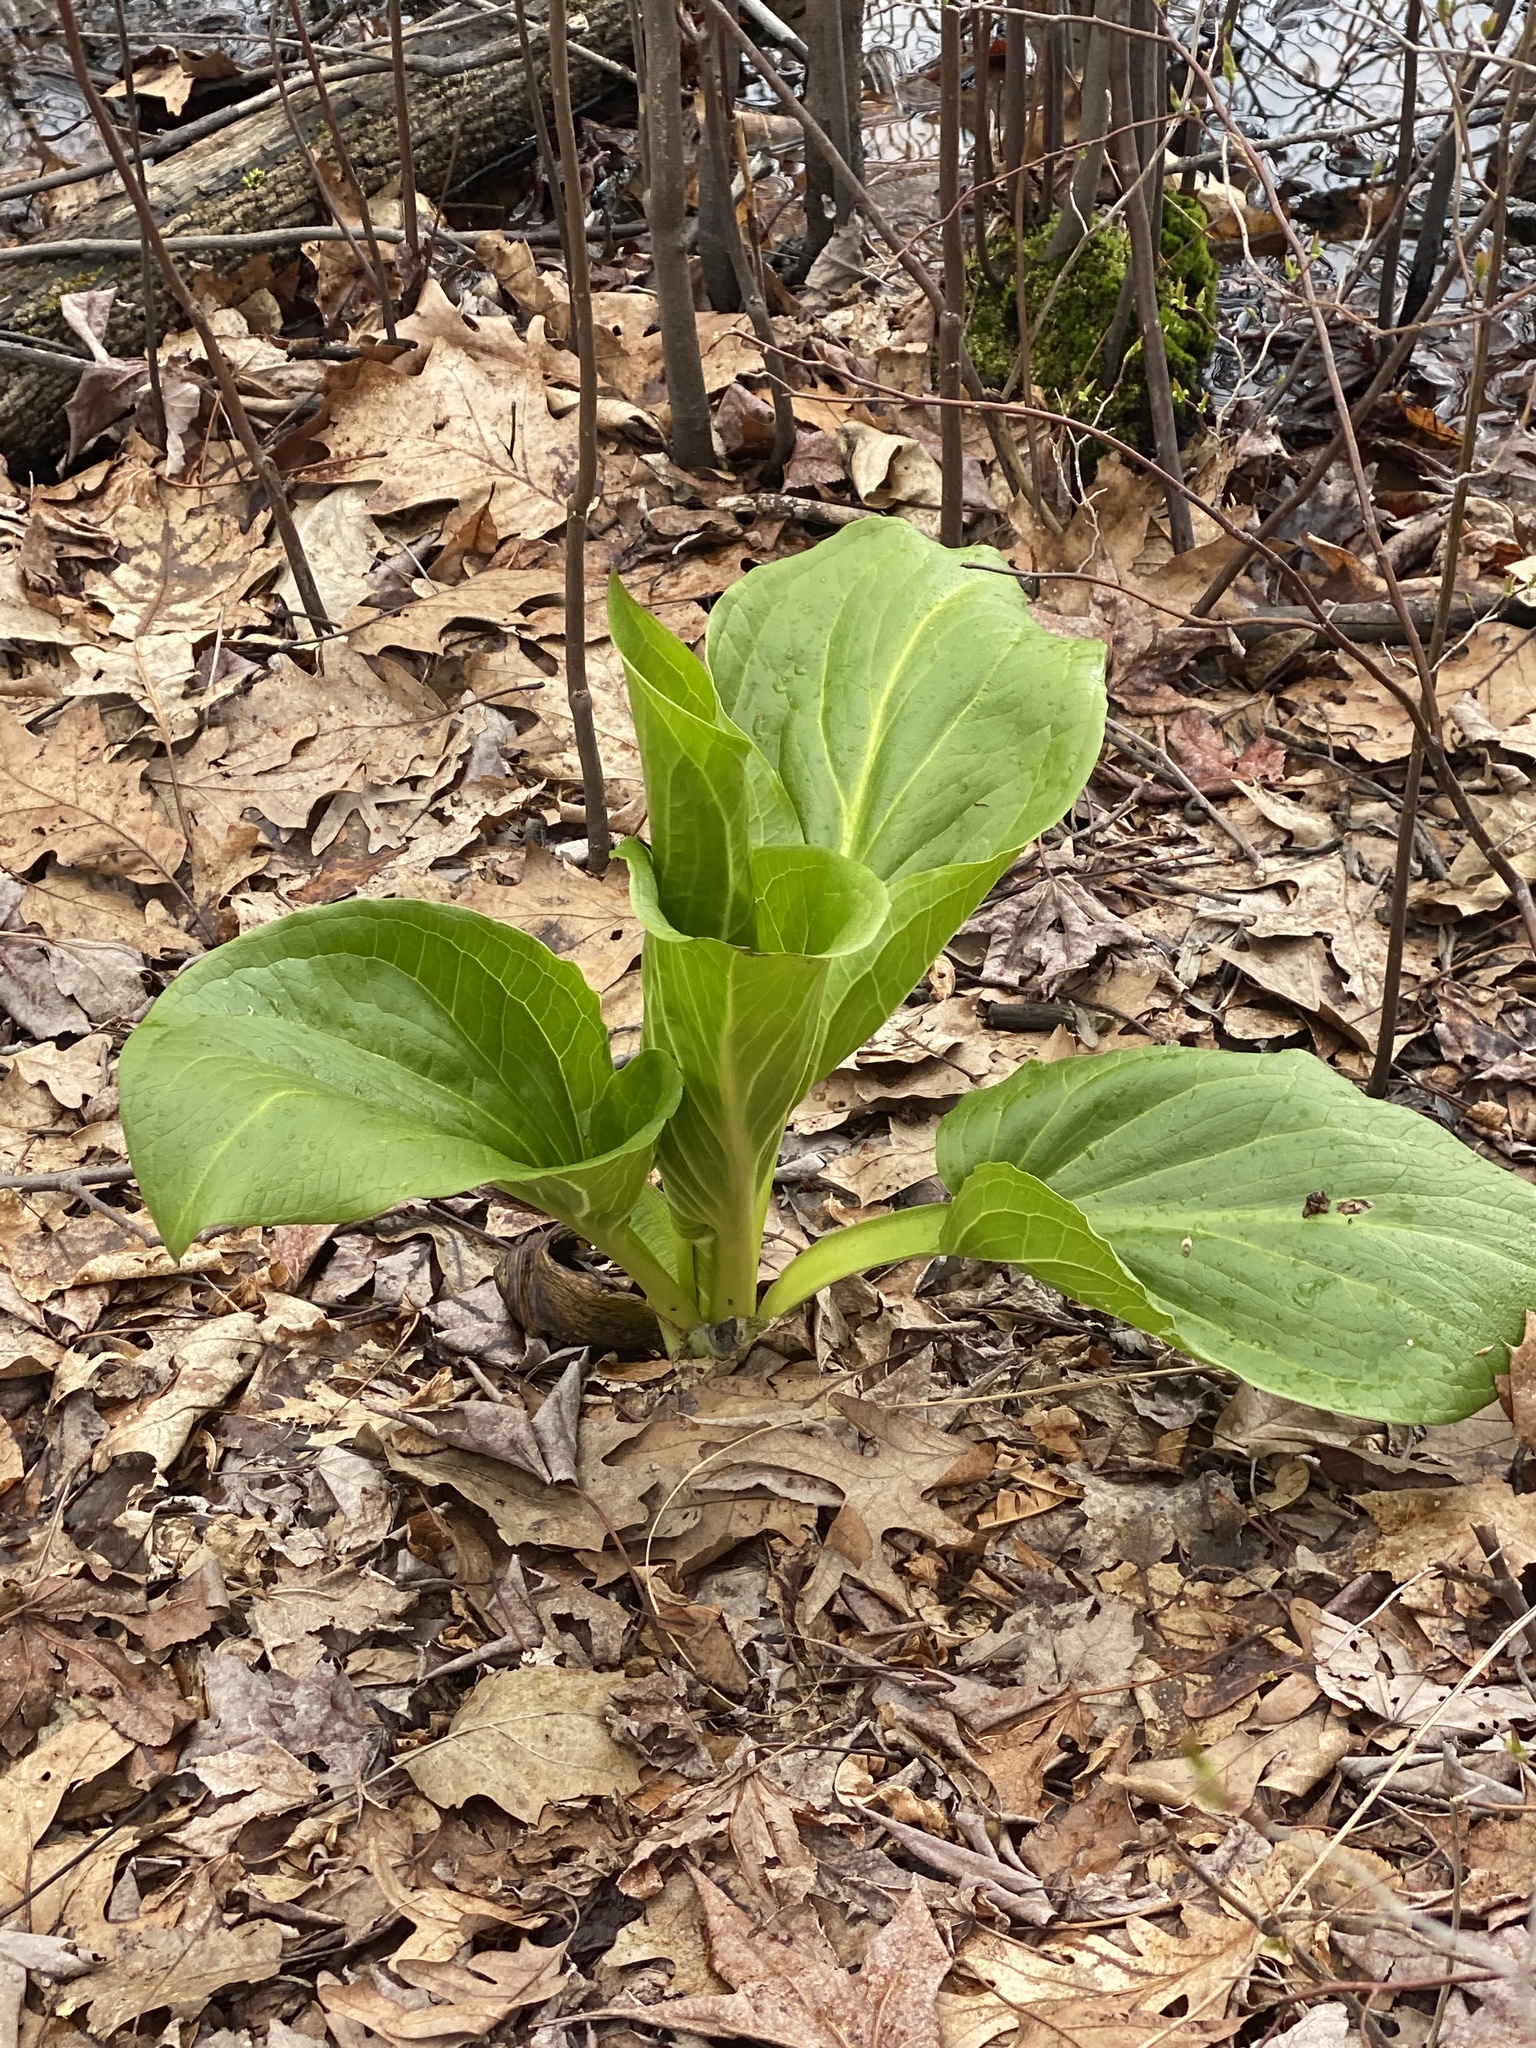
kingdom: Plantae
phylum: Tracheophyta
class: Liliopsida
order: Alismatales
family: Araceae
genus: Symplocarpus
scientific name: Symplocarpus foetidus
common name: Eastern skunk cabbage
